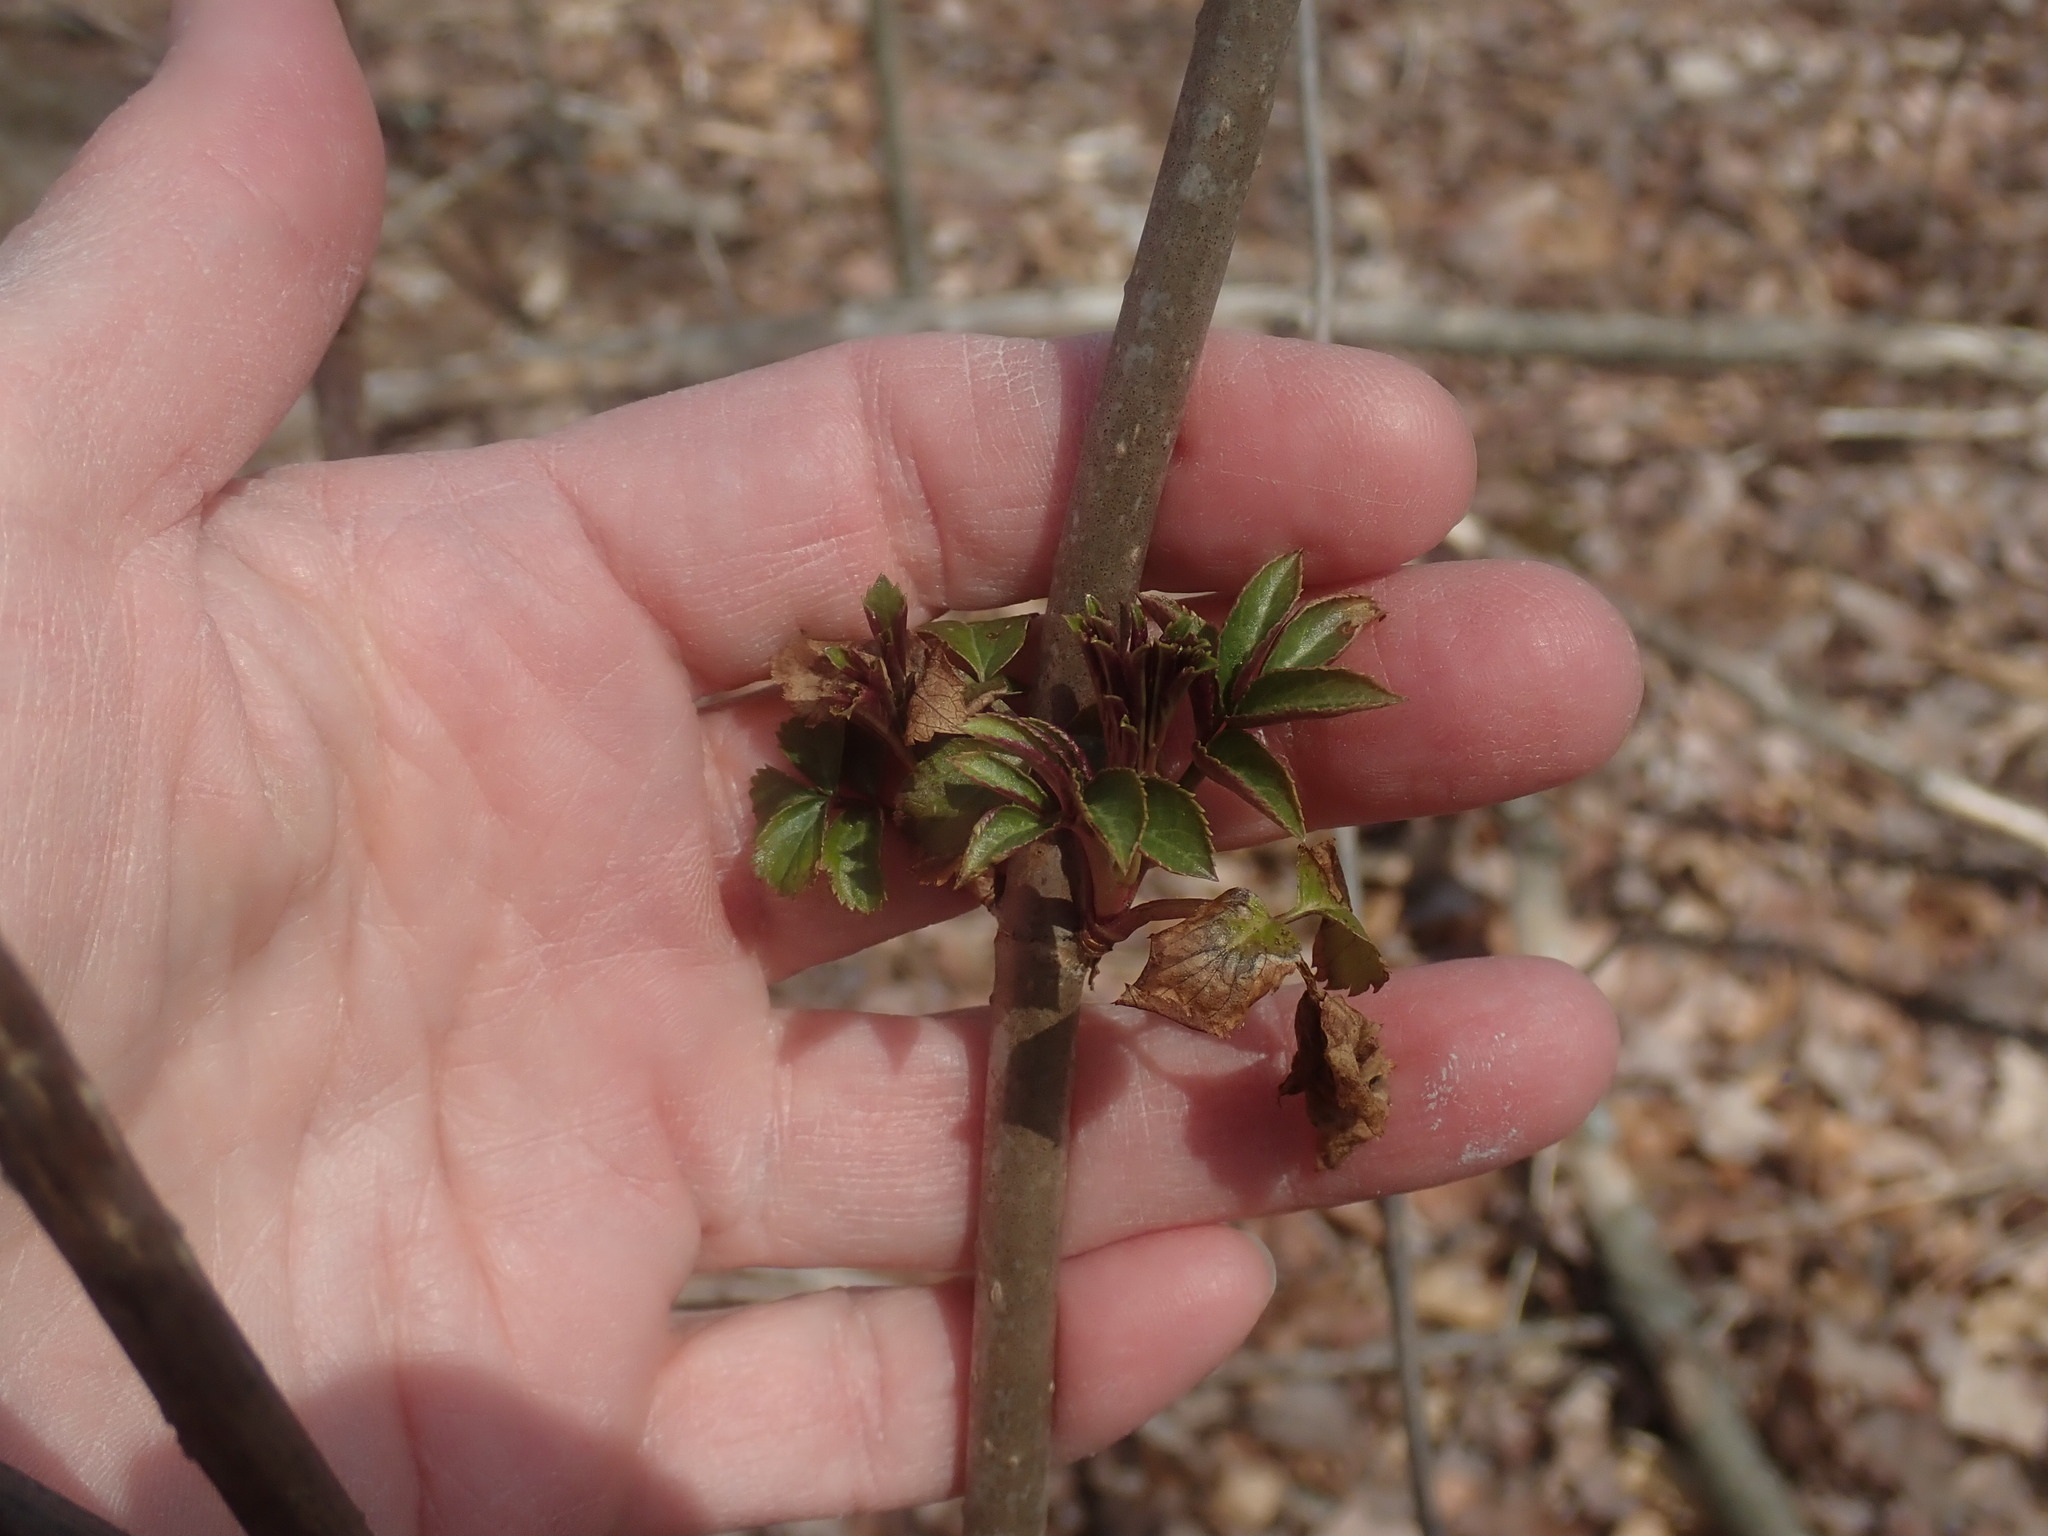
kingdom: Plantae
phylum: Tracheophyta
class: Magnoliopsida
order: Dipsacales
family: Viburnaceae
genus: Sambucus
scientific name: Sambucus
